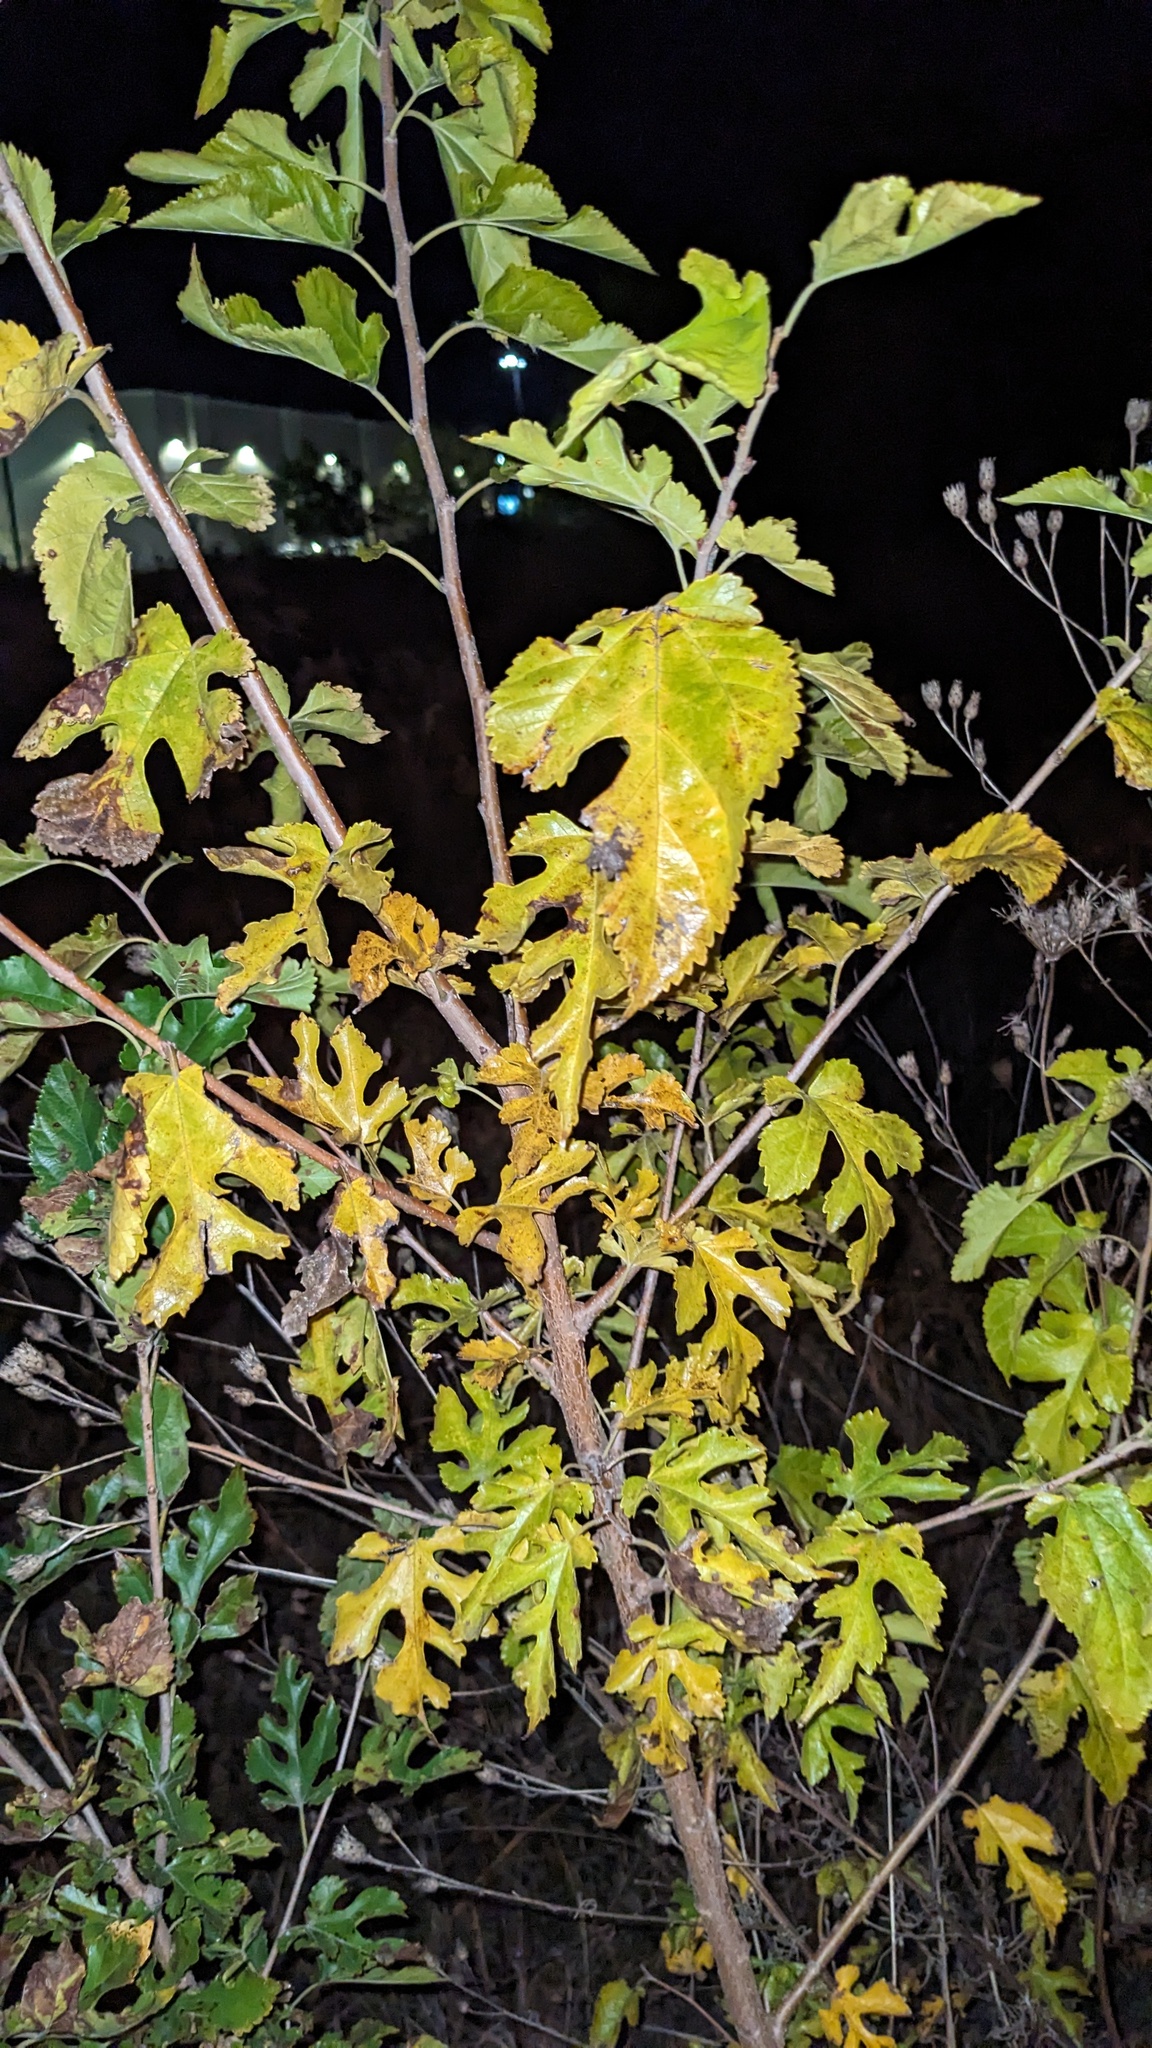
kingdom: Plantae
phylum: Tracheophyta
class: Magnoliopsida
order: Rosales
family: Moraceae
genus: Morus
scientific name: Morus alba
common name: White mulberry
